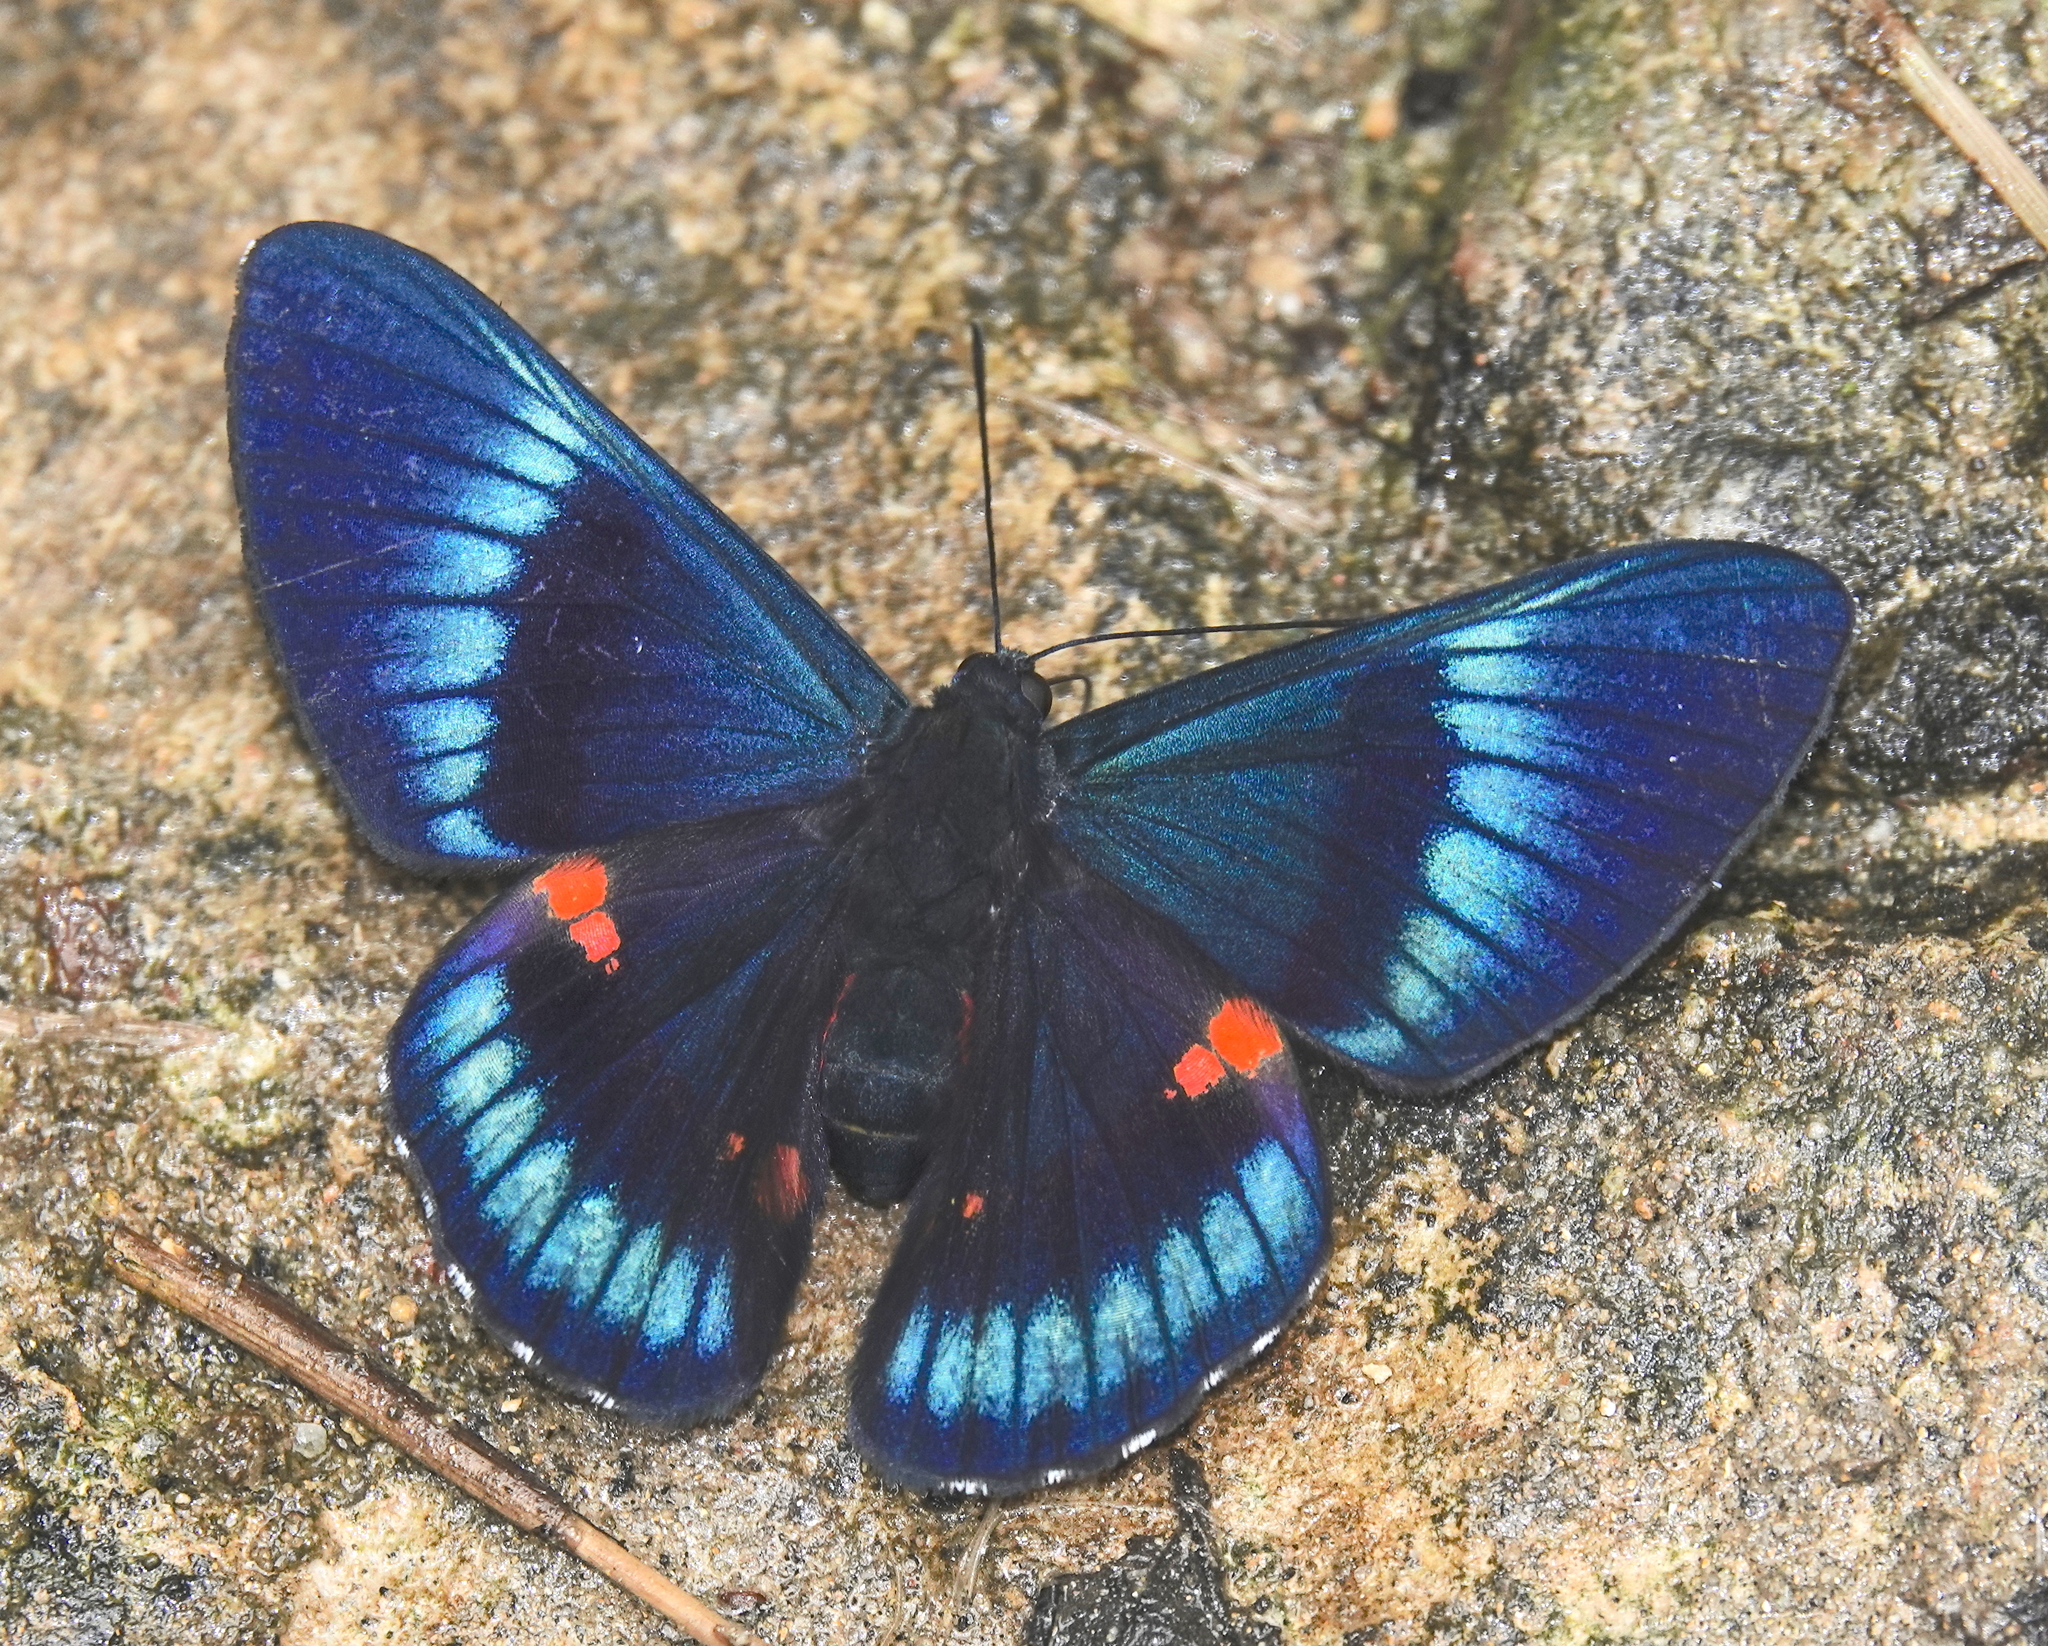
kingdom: Animalia
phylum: Arthropoda
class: Insecta
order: Lepidoptera
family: Lycaenidae
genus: Necyria
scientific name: Necyria bellona
